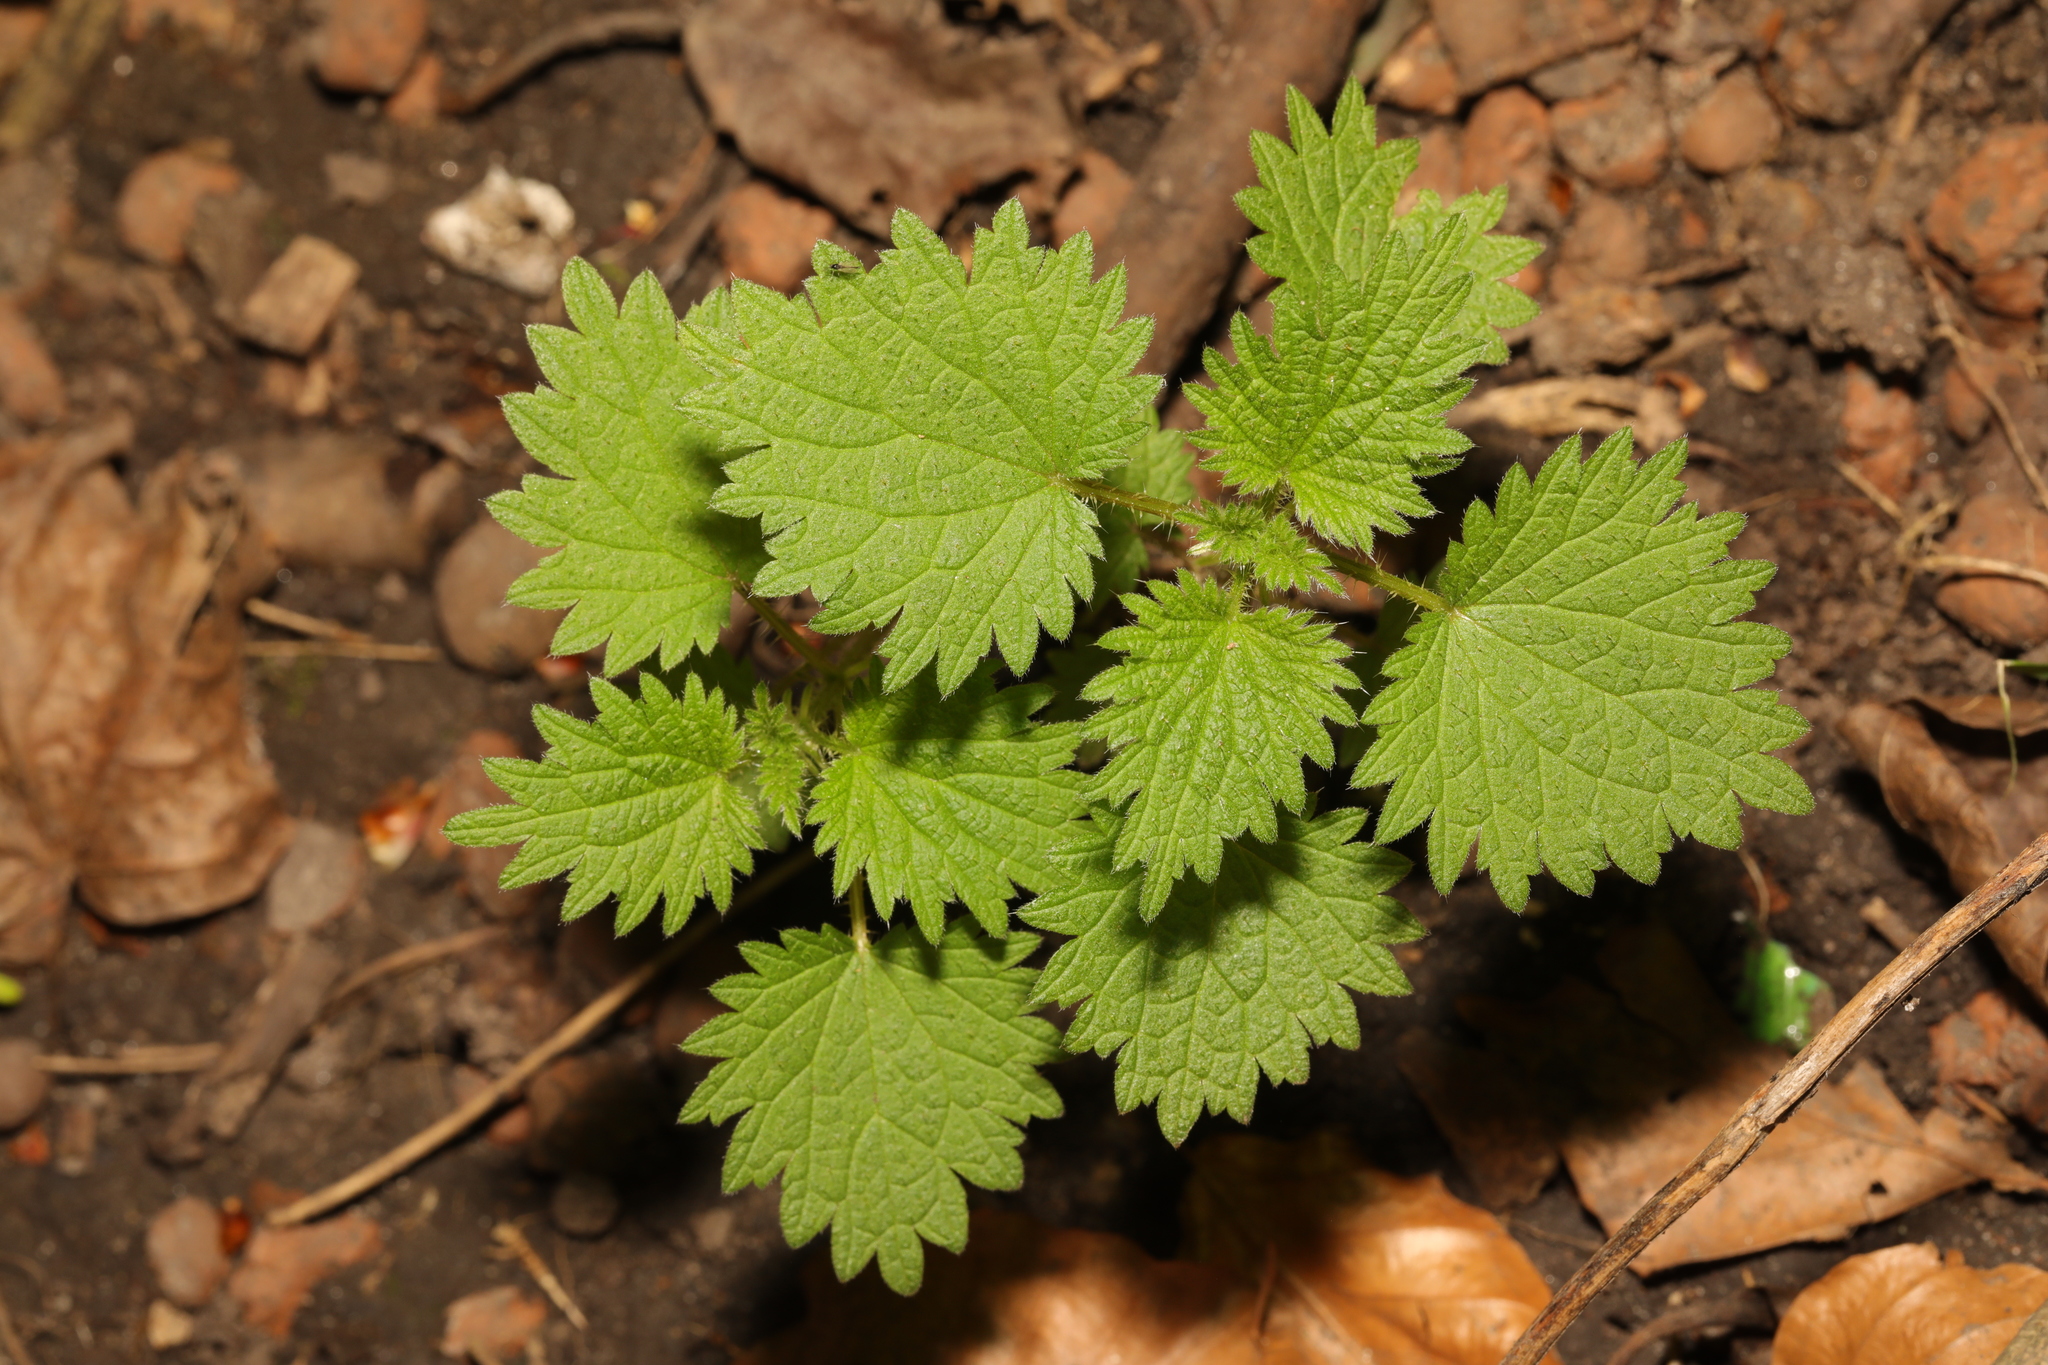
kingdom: Plantae
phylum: Tracheophyta
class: Magnoliopsida
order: Rosales
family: Urticaceae
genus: Urtica
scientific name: Urtica dioica
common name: Common nettle
